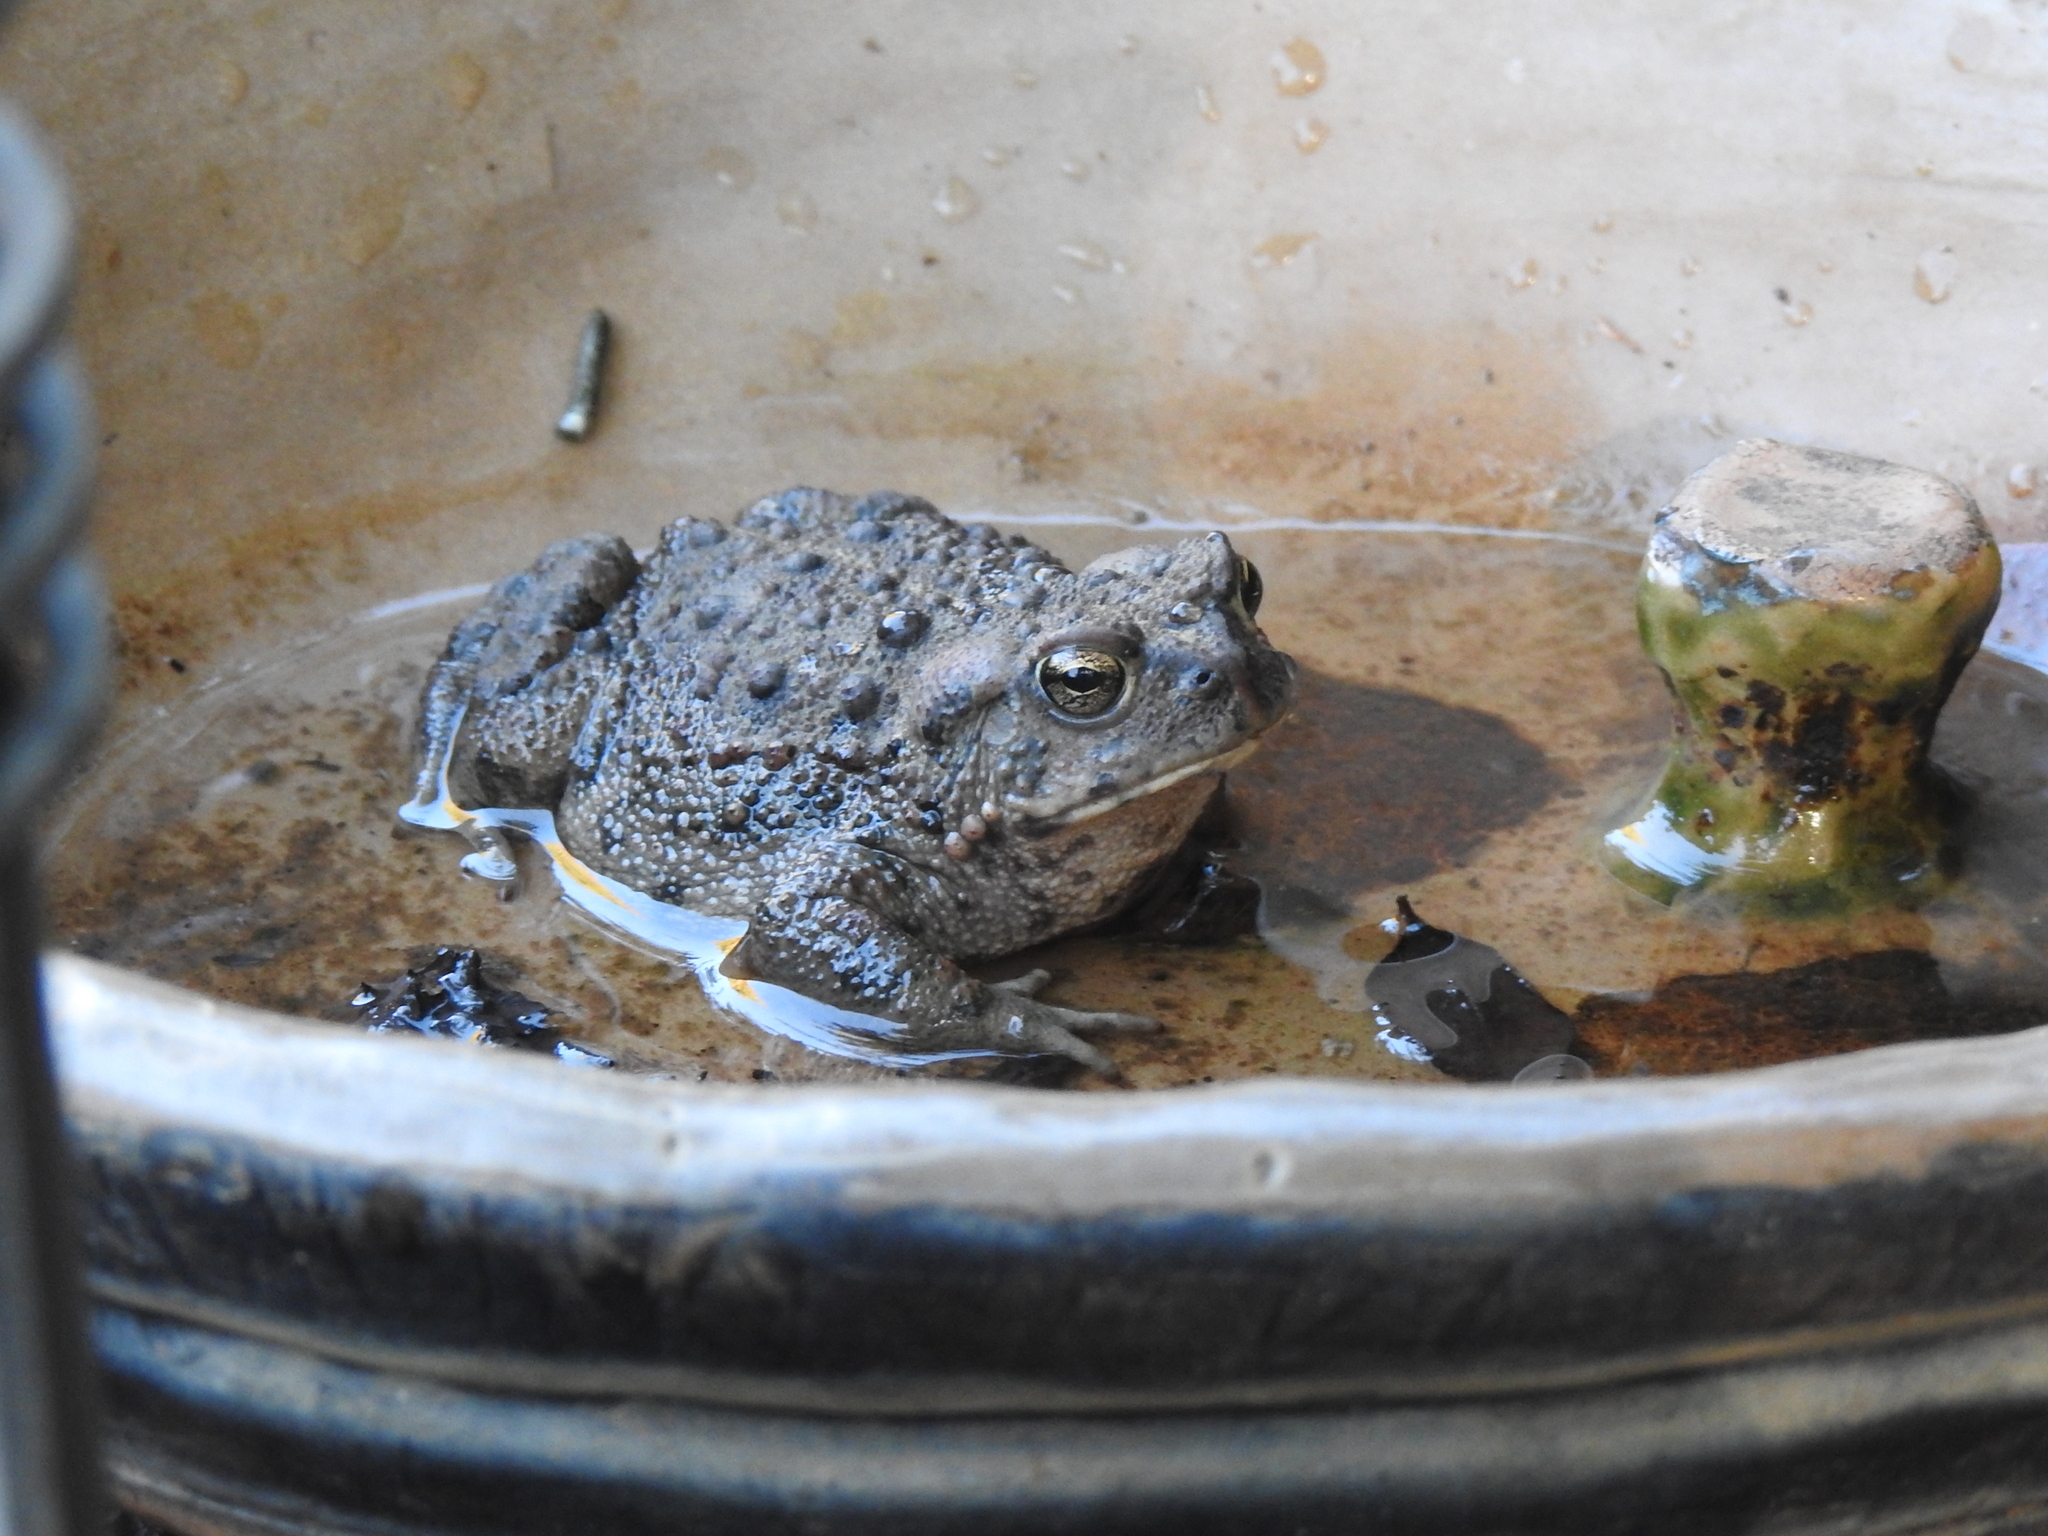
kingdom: Animalia
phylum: Chordata
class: Amphibia
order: Anura
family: Bufonidae
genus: Anaxyrus
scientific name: Anaxyrus boreas
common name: Western toad
